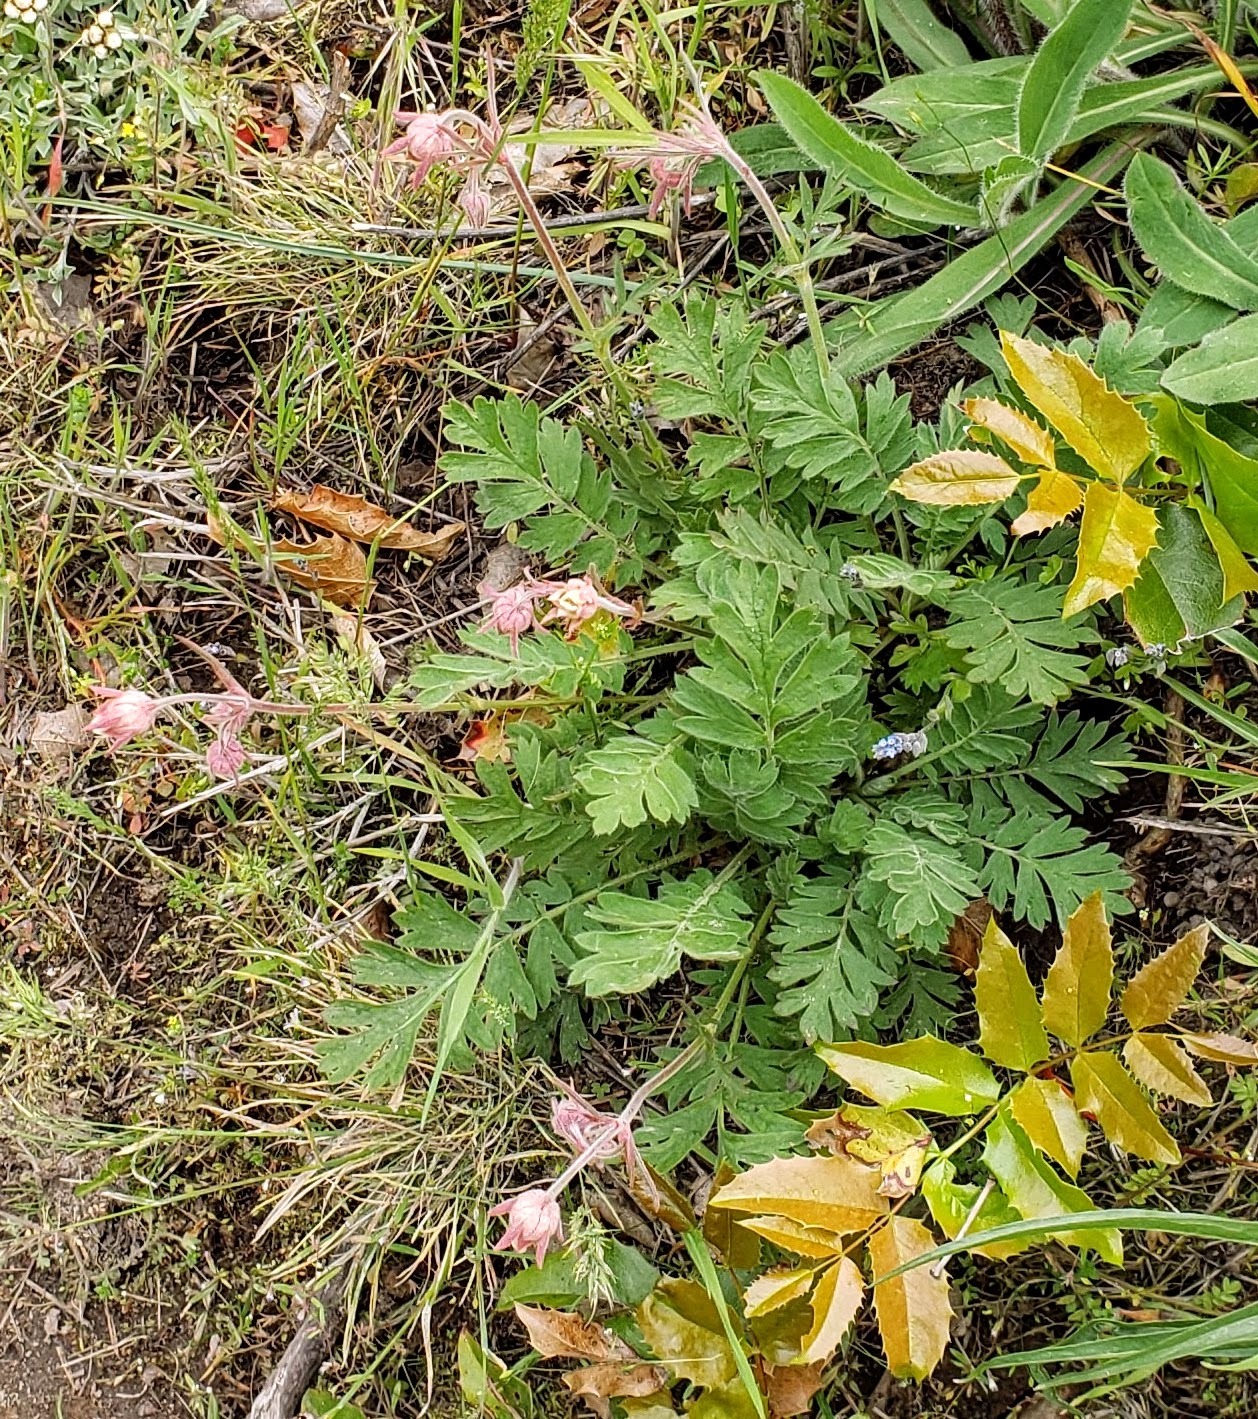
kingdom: Plantae
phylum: Tracheophyta
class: Magnoliopsida
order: Rosales
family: Rosaceae
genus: Geum
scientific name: Geum triflorum
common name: Old man's whiskers
